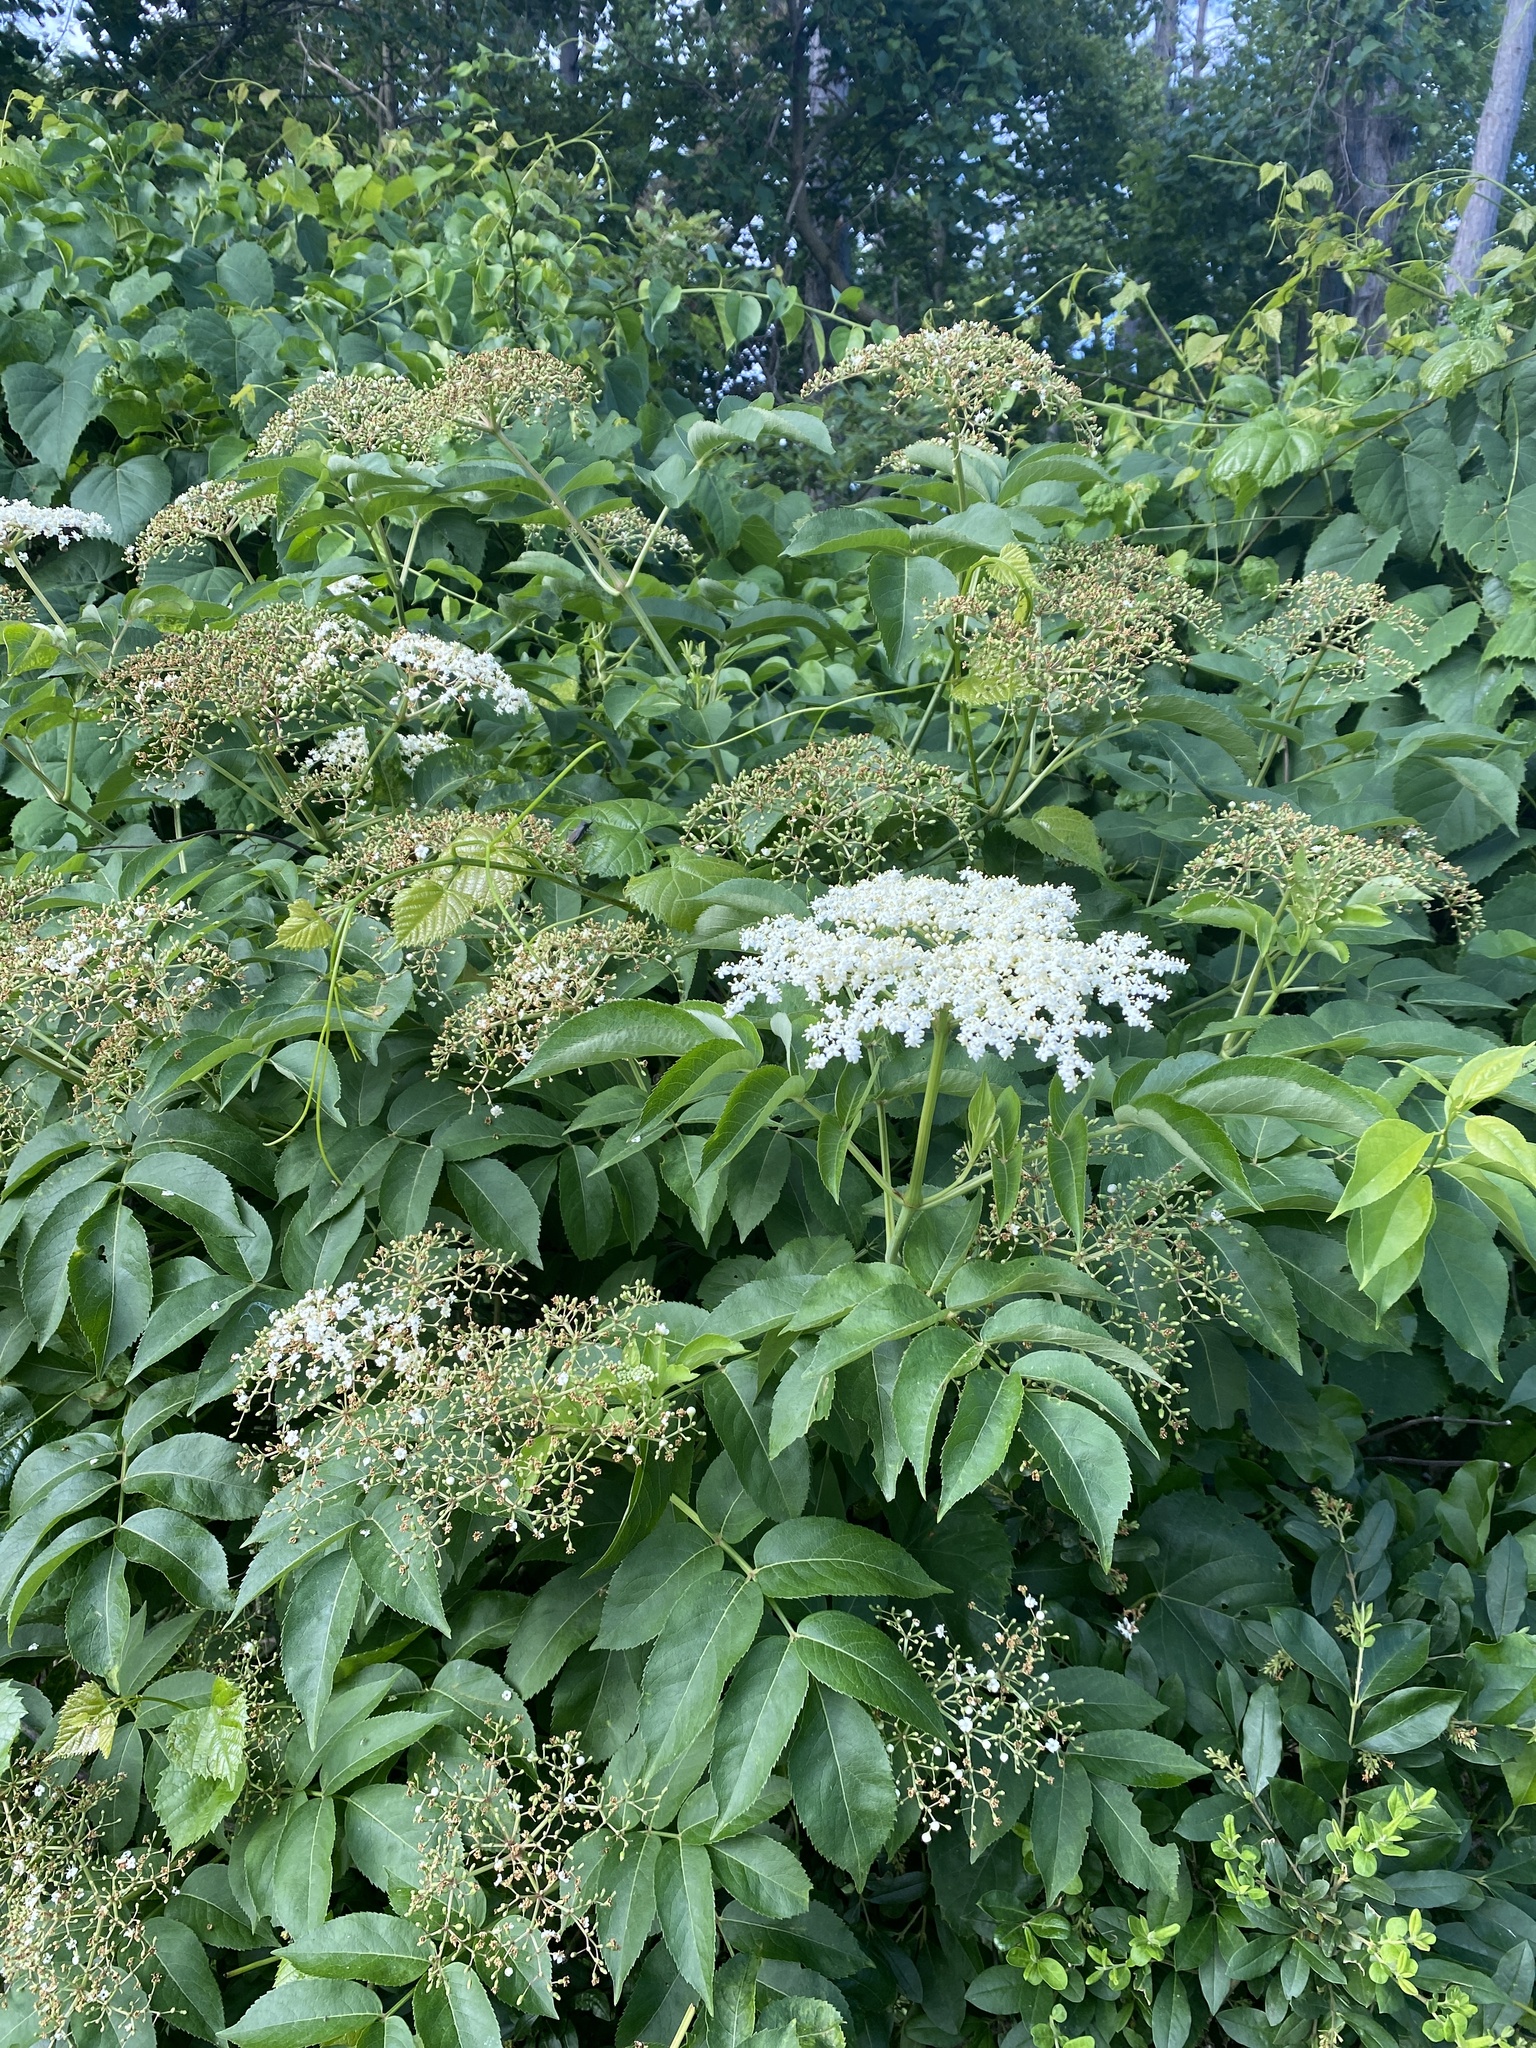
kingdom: Plantae
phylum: Tracheophyta
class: Magnoliopsida
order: Dipsacales
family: Viburnaceae
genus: Sambucus
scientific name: Sambucus canadensis
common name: American elder
